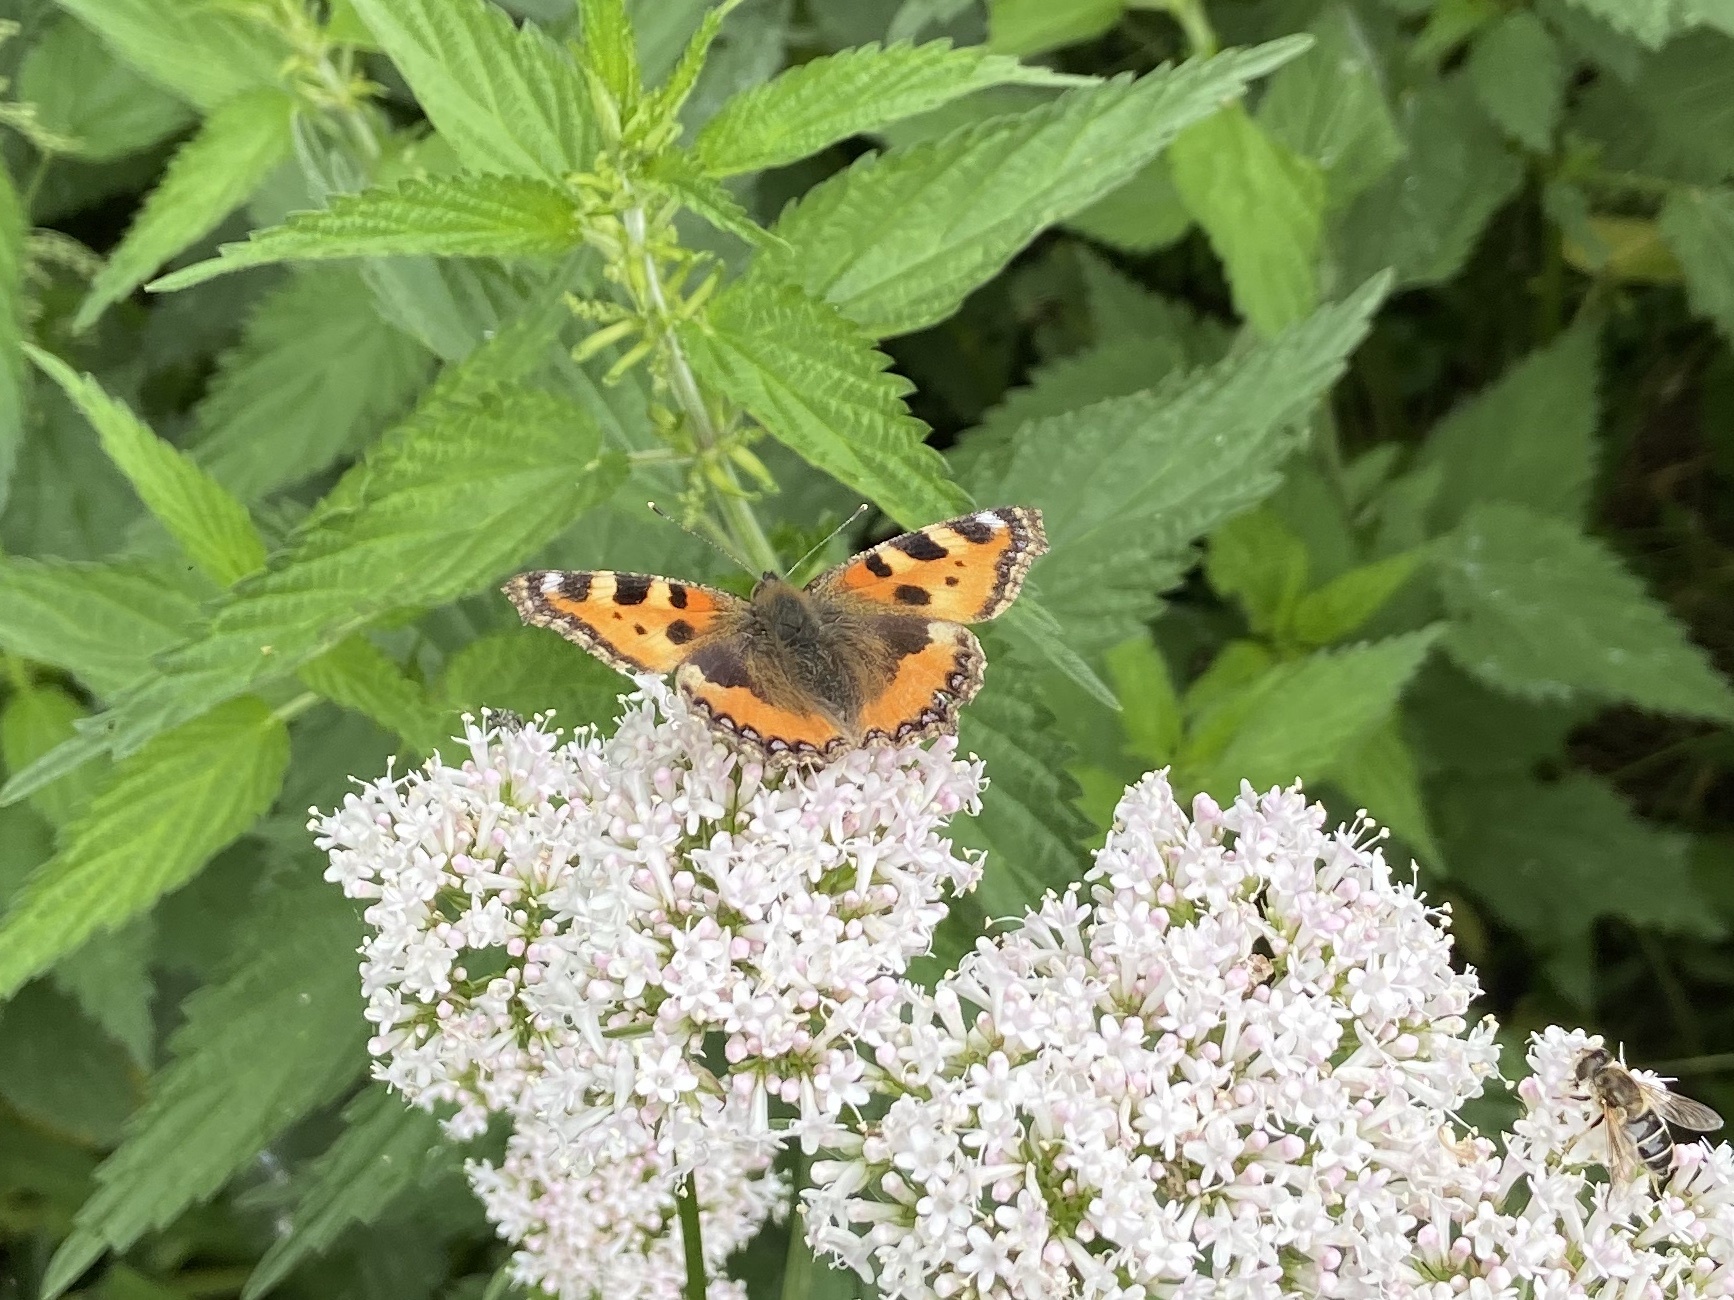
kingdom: Animalia
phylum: Arthropoda
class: Insecta
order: Lepidoptera
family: Nymphalidae
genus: Aglais
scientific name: Aglais urticae
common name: Small tortoiseshell
